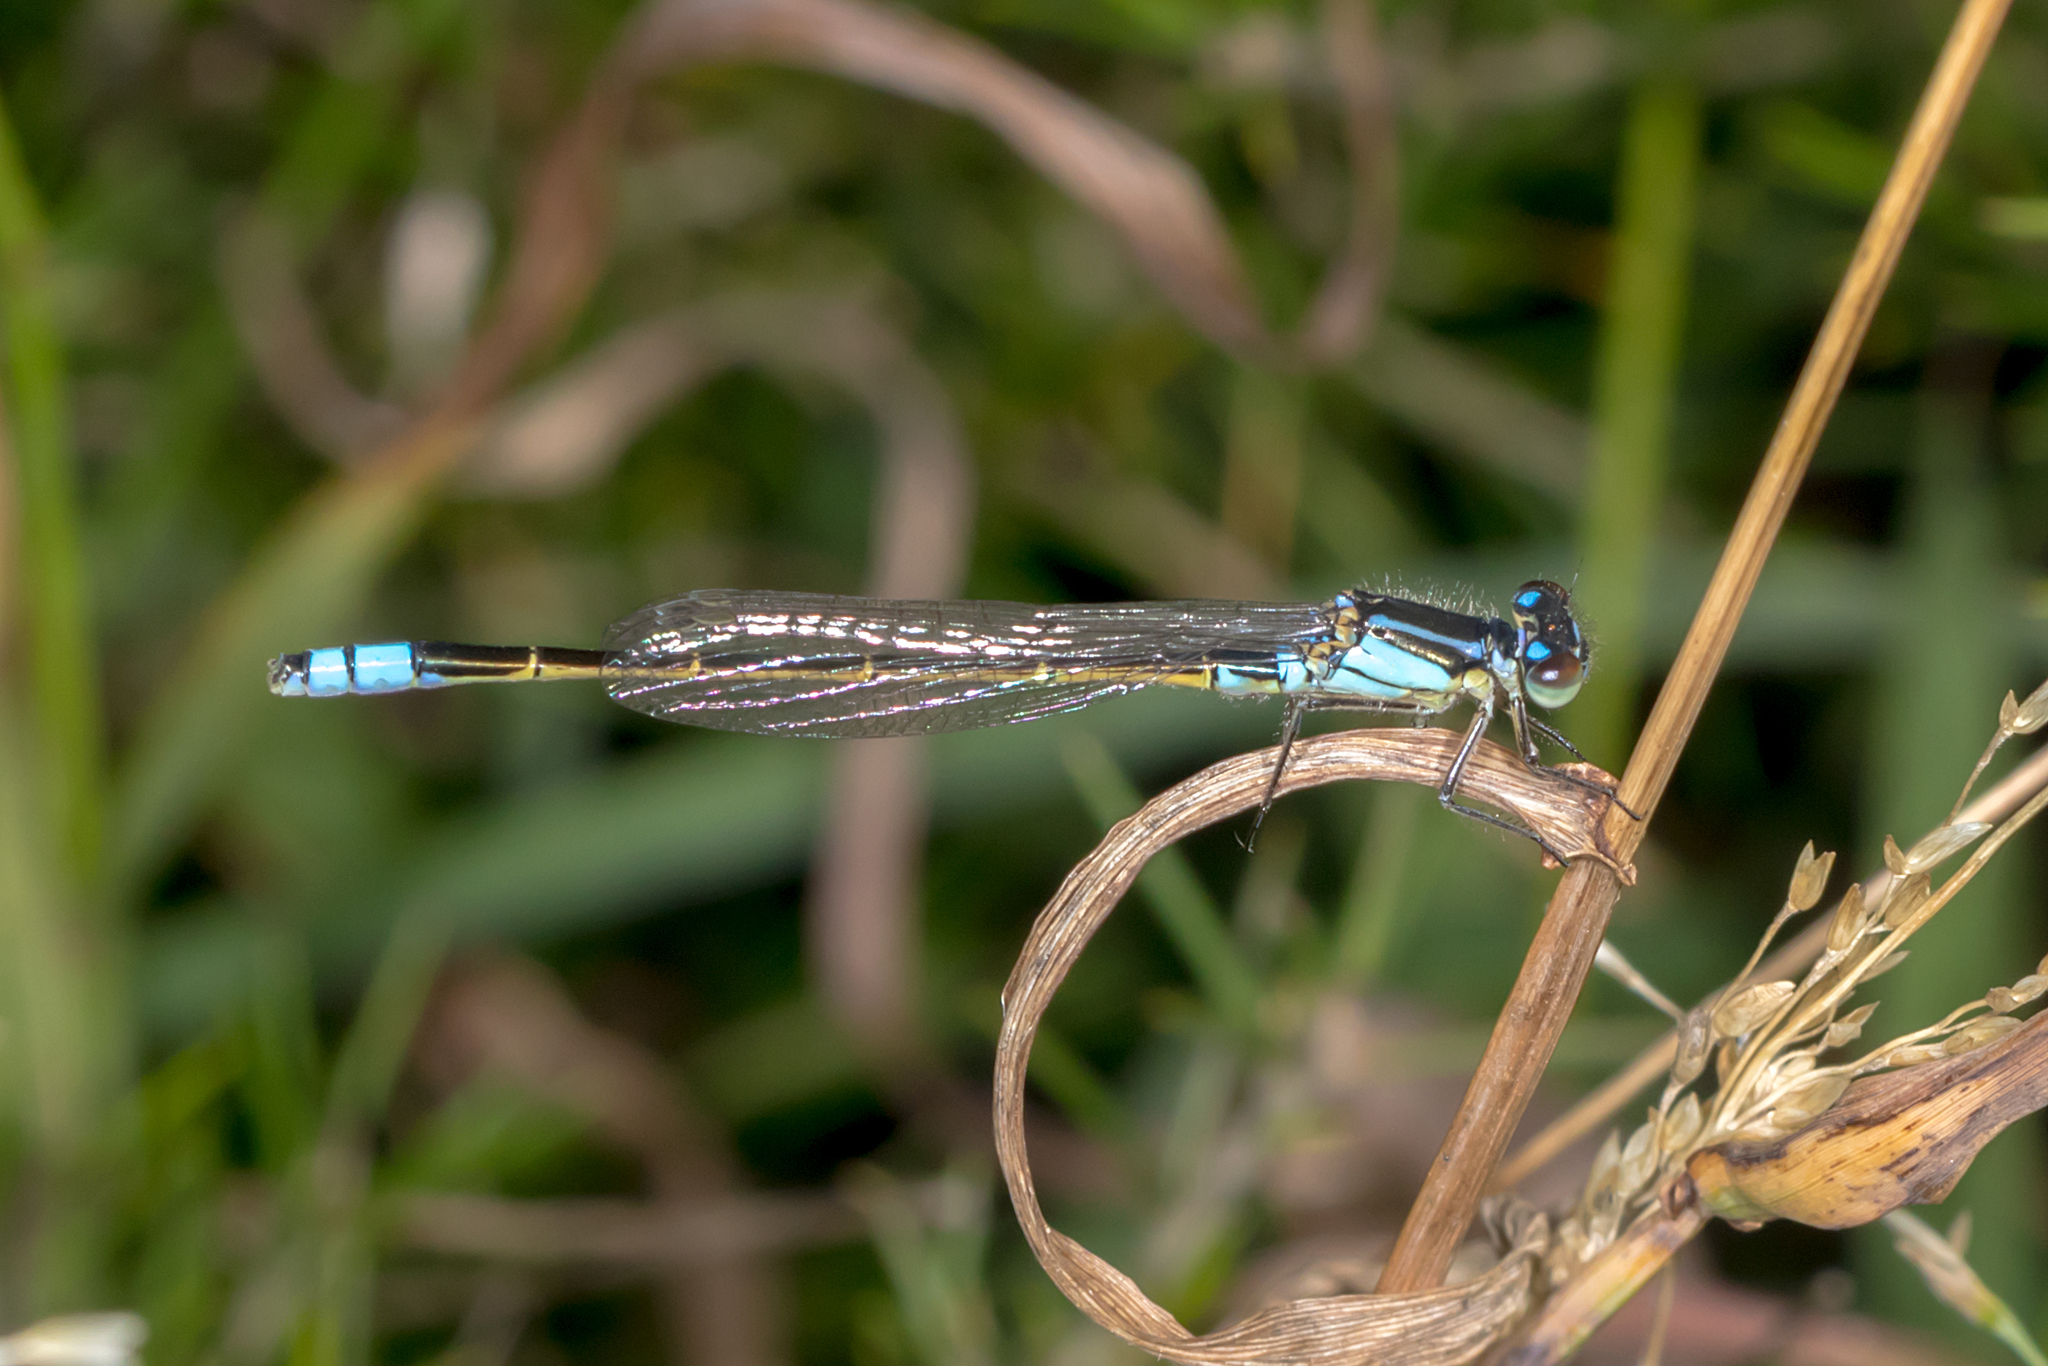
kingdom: Animalia
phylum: Arthropoda
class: Insecta
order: Odonata
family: Coenagrionidae
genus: Ischnura
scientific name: Ischnura heterosticta
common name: Common bluetail
